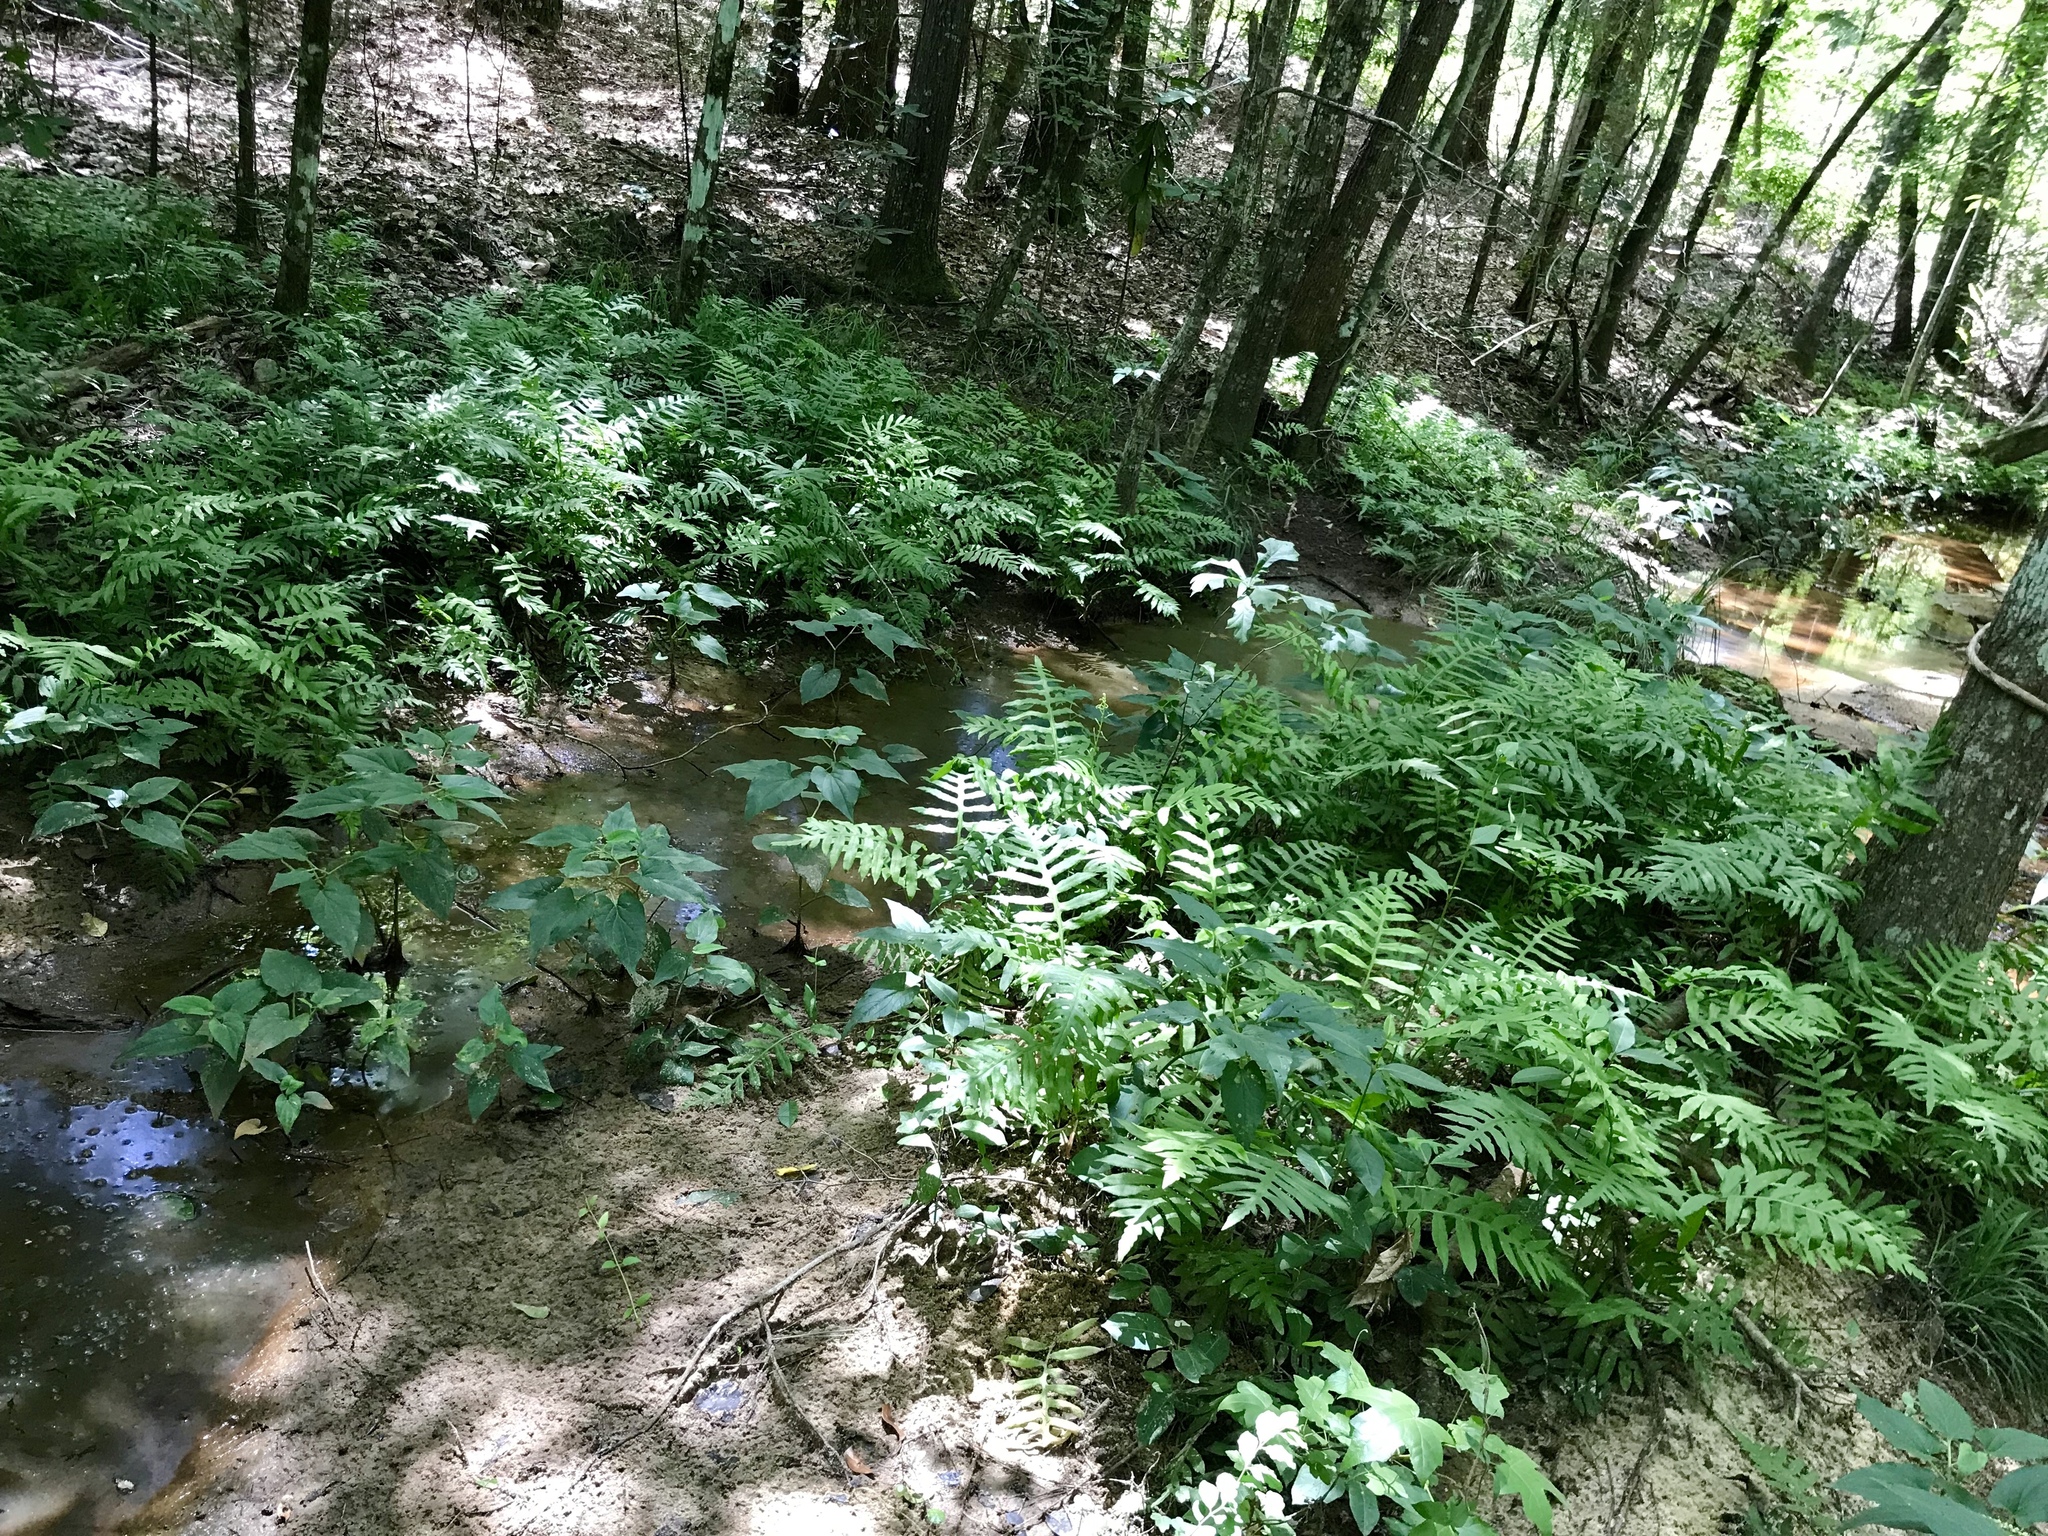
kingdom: Plantae
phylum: Tracheophyta
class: Polypodiopsida
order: Polypodiales
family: Onocleaceae
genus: Onoclea
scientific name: Onoclea sensibilis
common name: Sensitive fern
